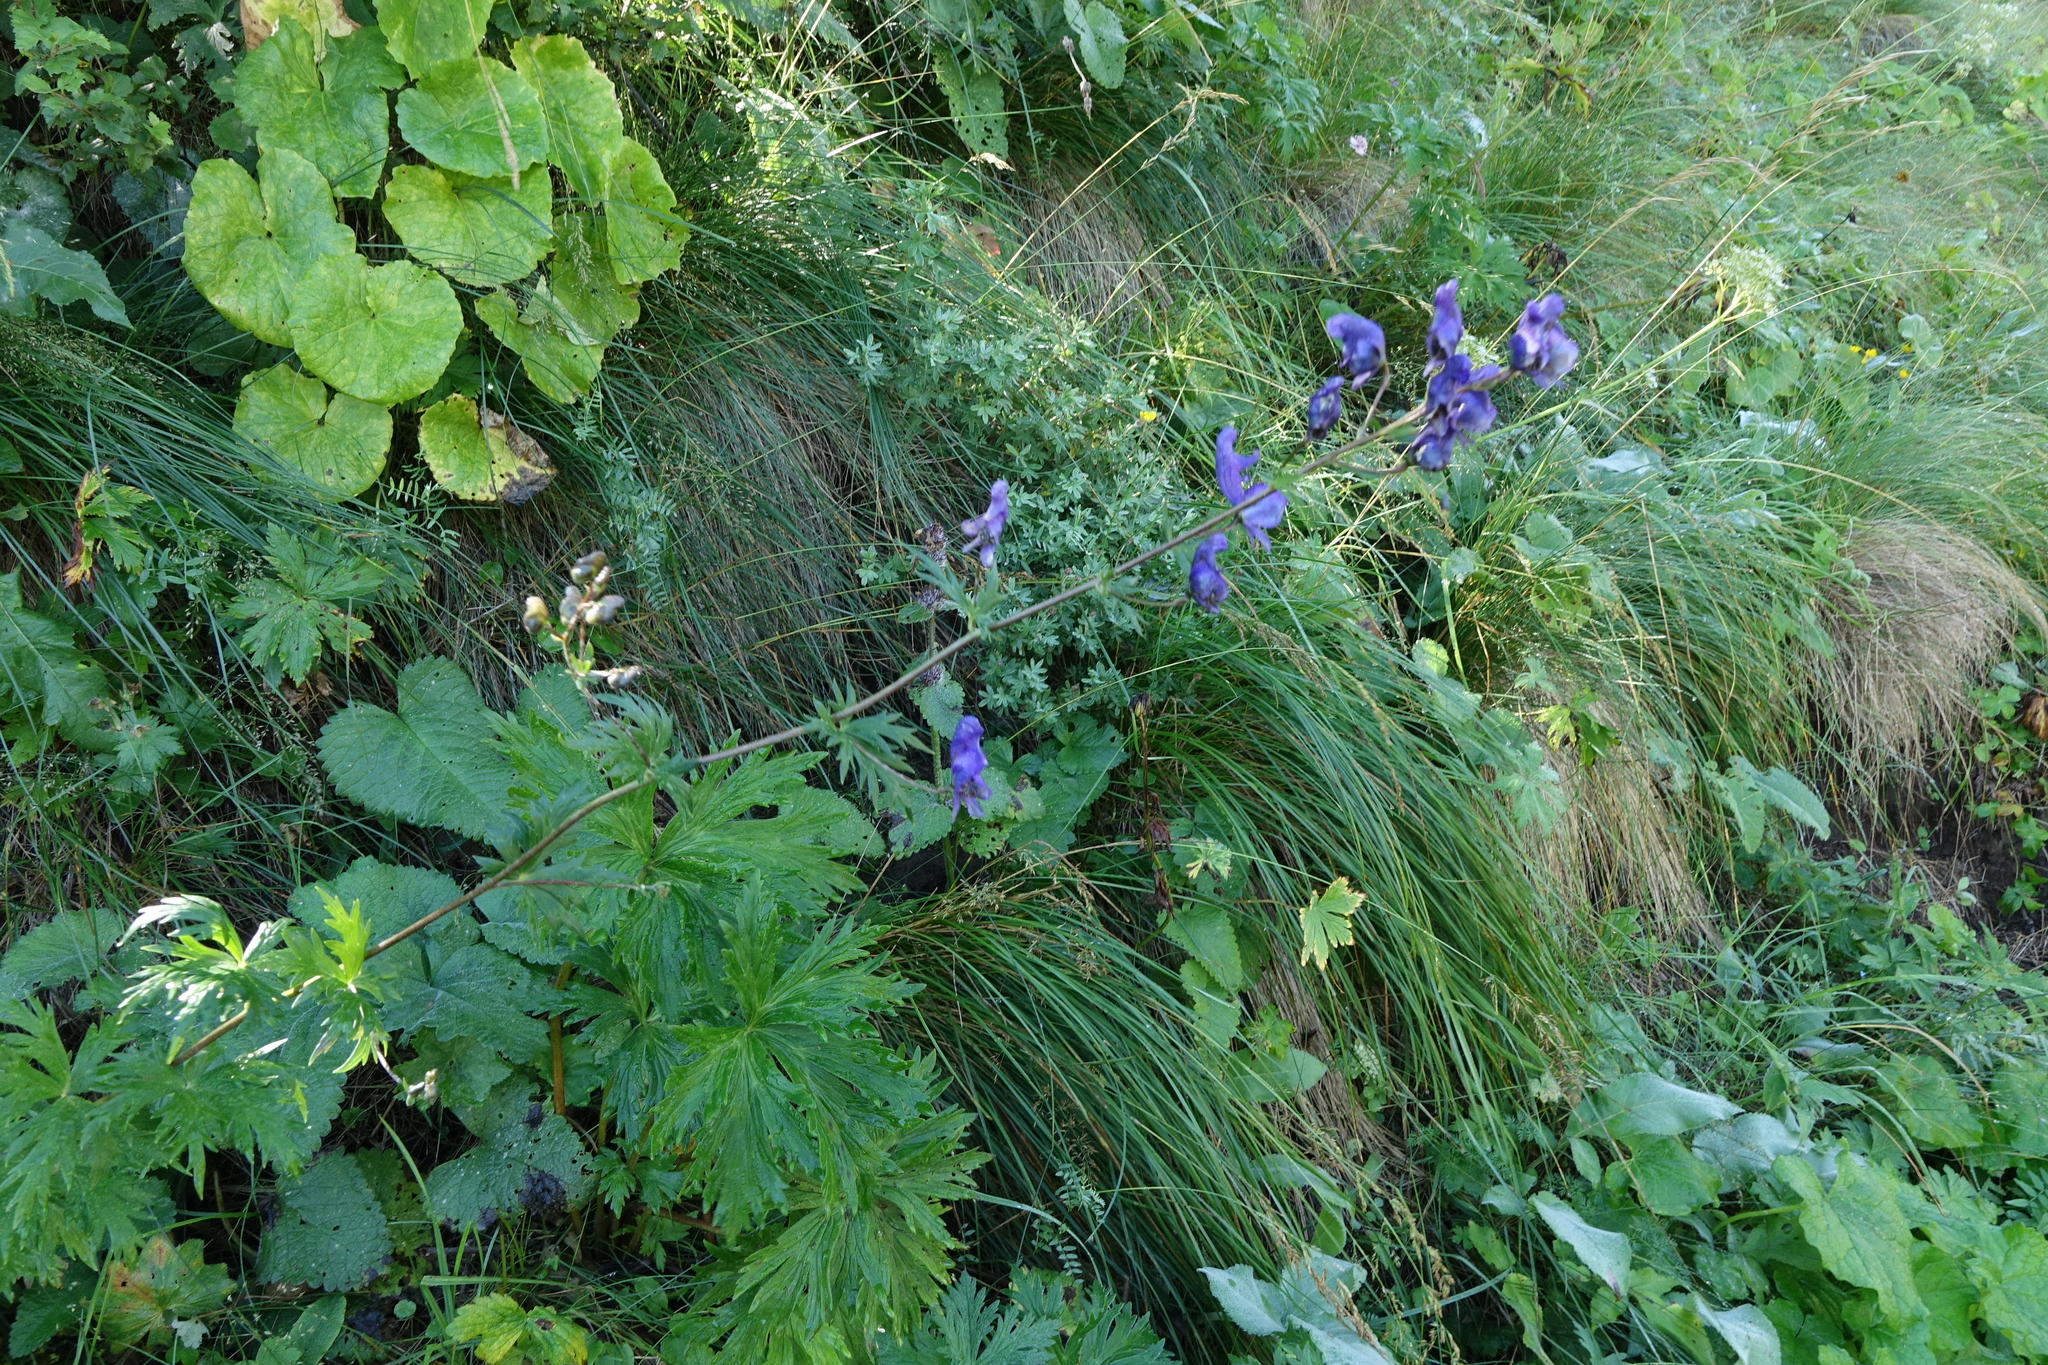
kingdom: Plantae
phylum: Tracheophyta
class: Magnoliopsida
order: Ranunculales
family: Ranunculaceae
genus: Aconitum
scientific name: Aconitum
